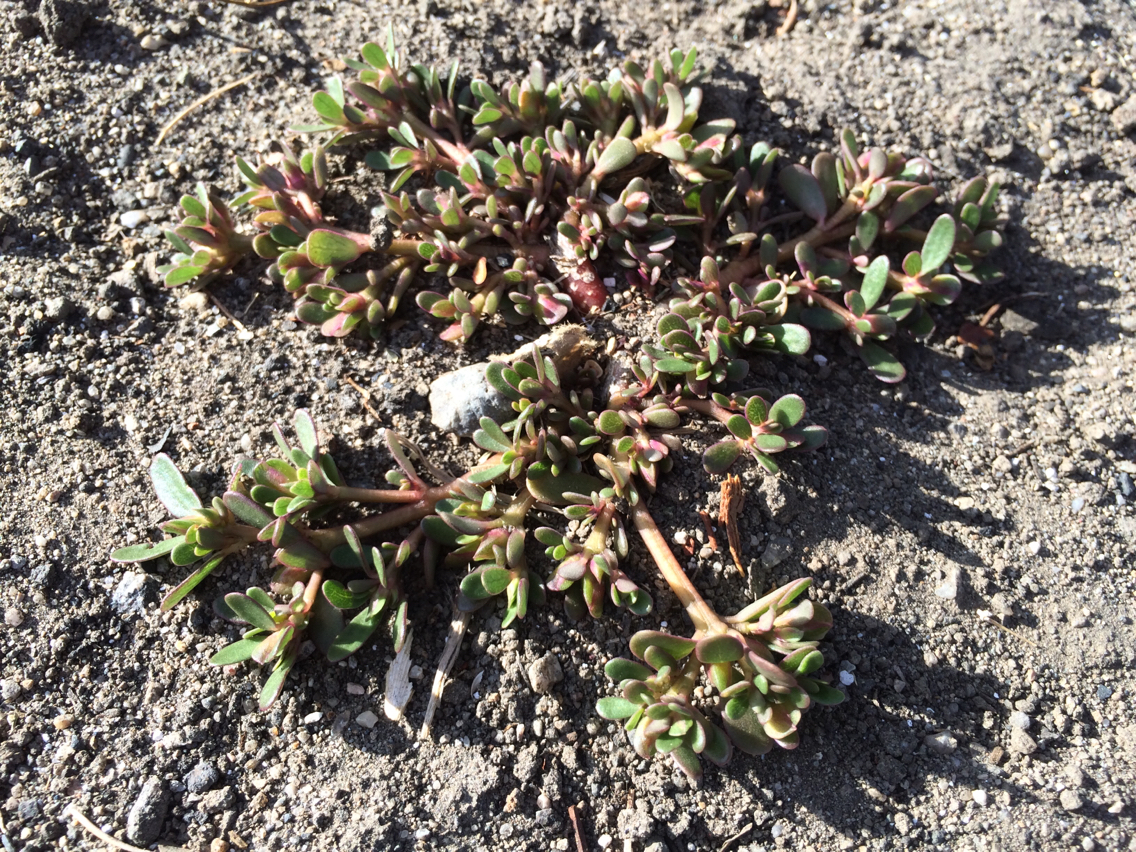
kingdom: Plantae
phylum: Tracheophyta
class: Magnoliopsida
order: Caryophyllales
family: Portulacaceae
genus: Portulaca
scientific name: Portulaca oleracea
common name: Common purslane
